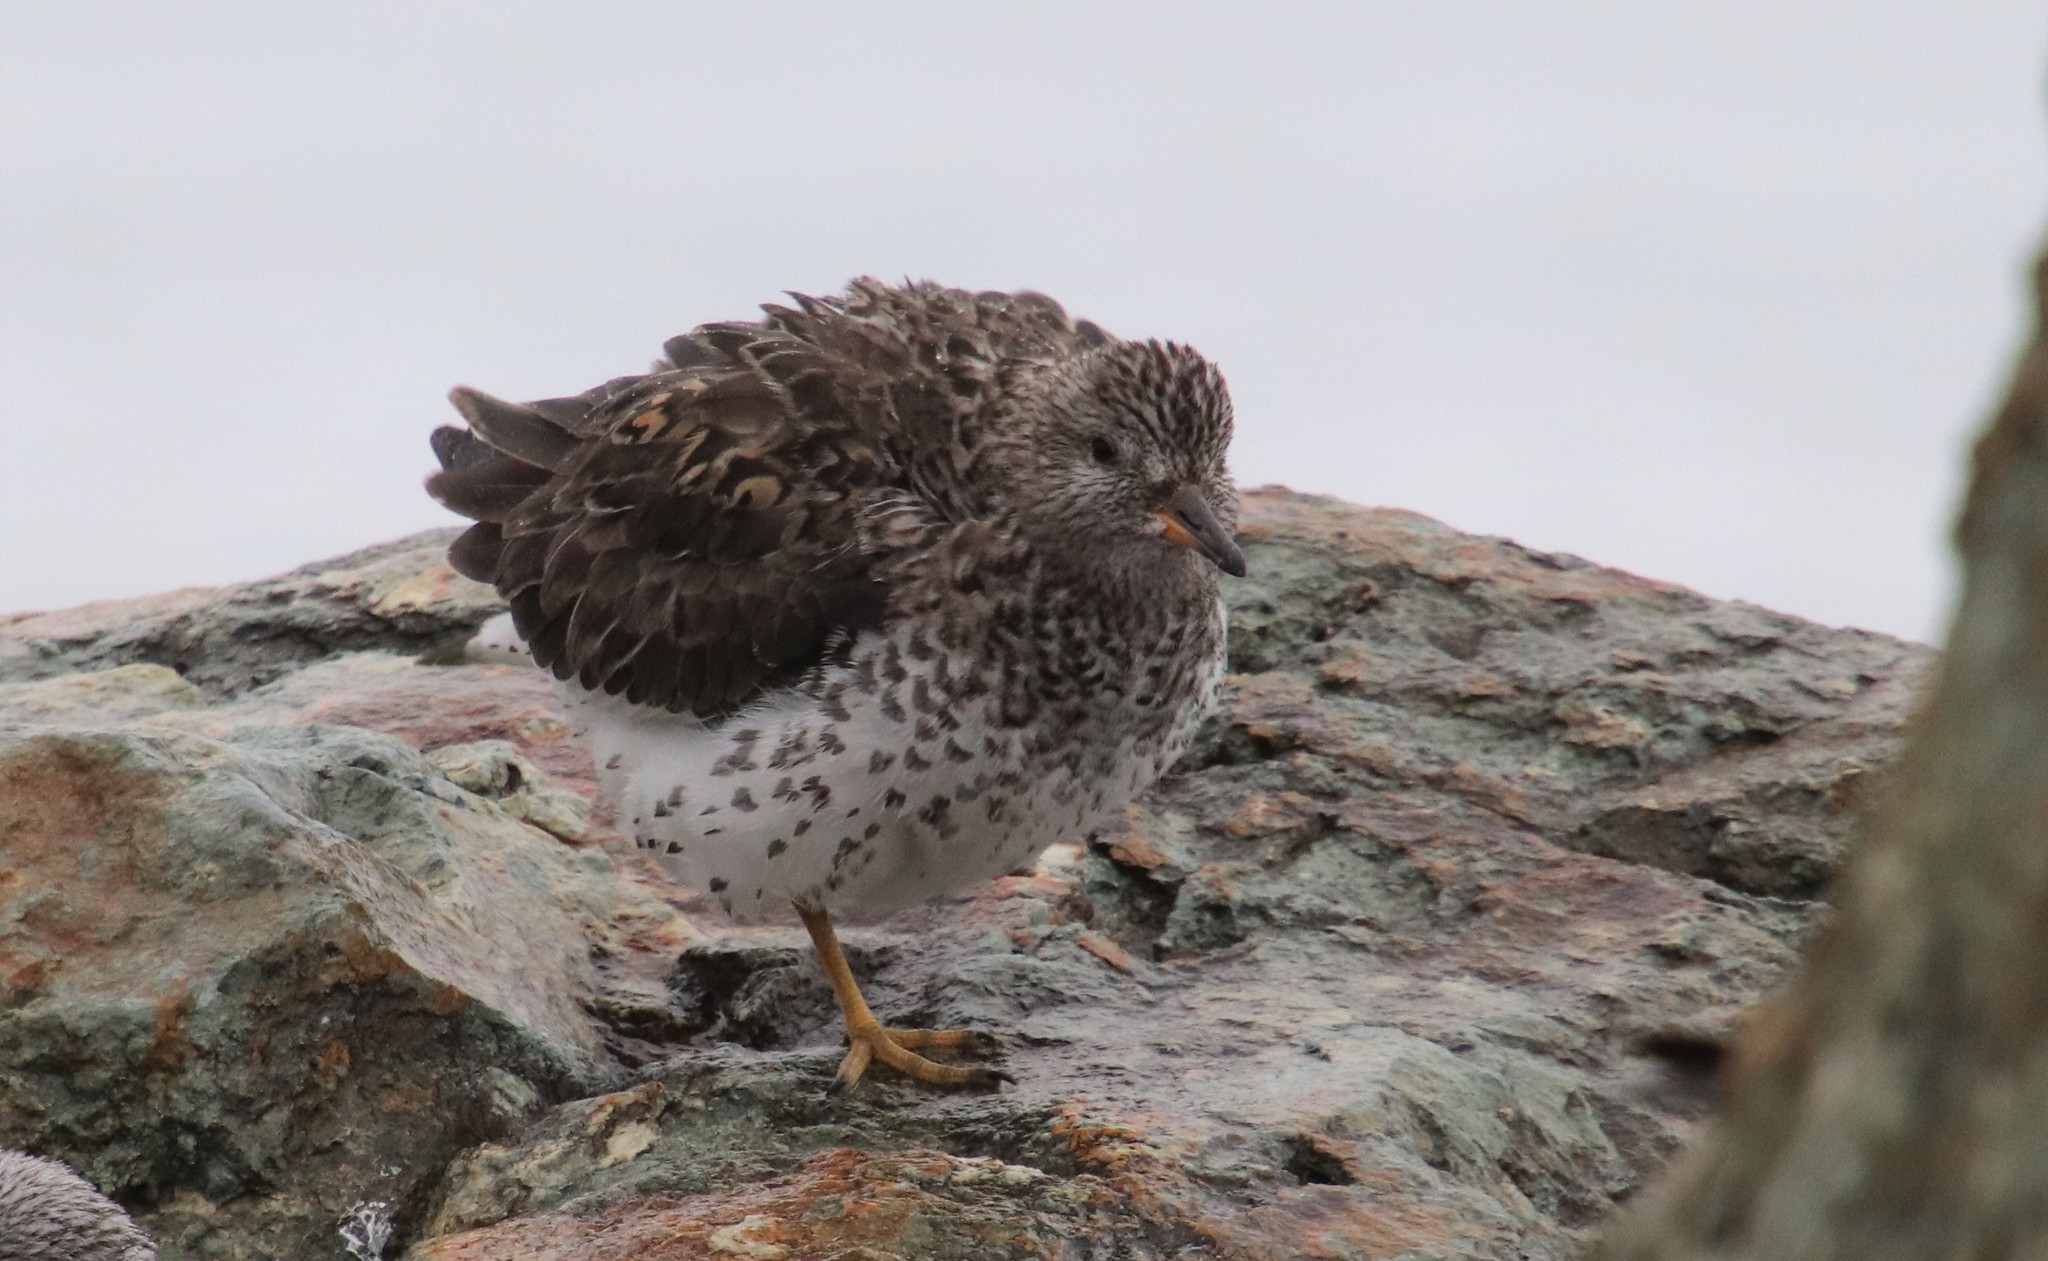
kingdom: Animalia
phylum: Chordata
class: Aves
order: Charadriiformes
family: Scolopacidae
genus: Calidris
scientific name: Calidris virgata
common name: Surfbird
